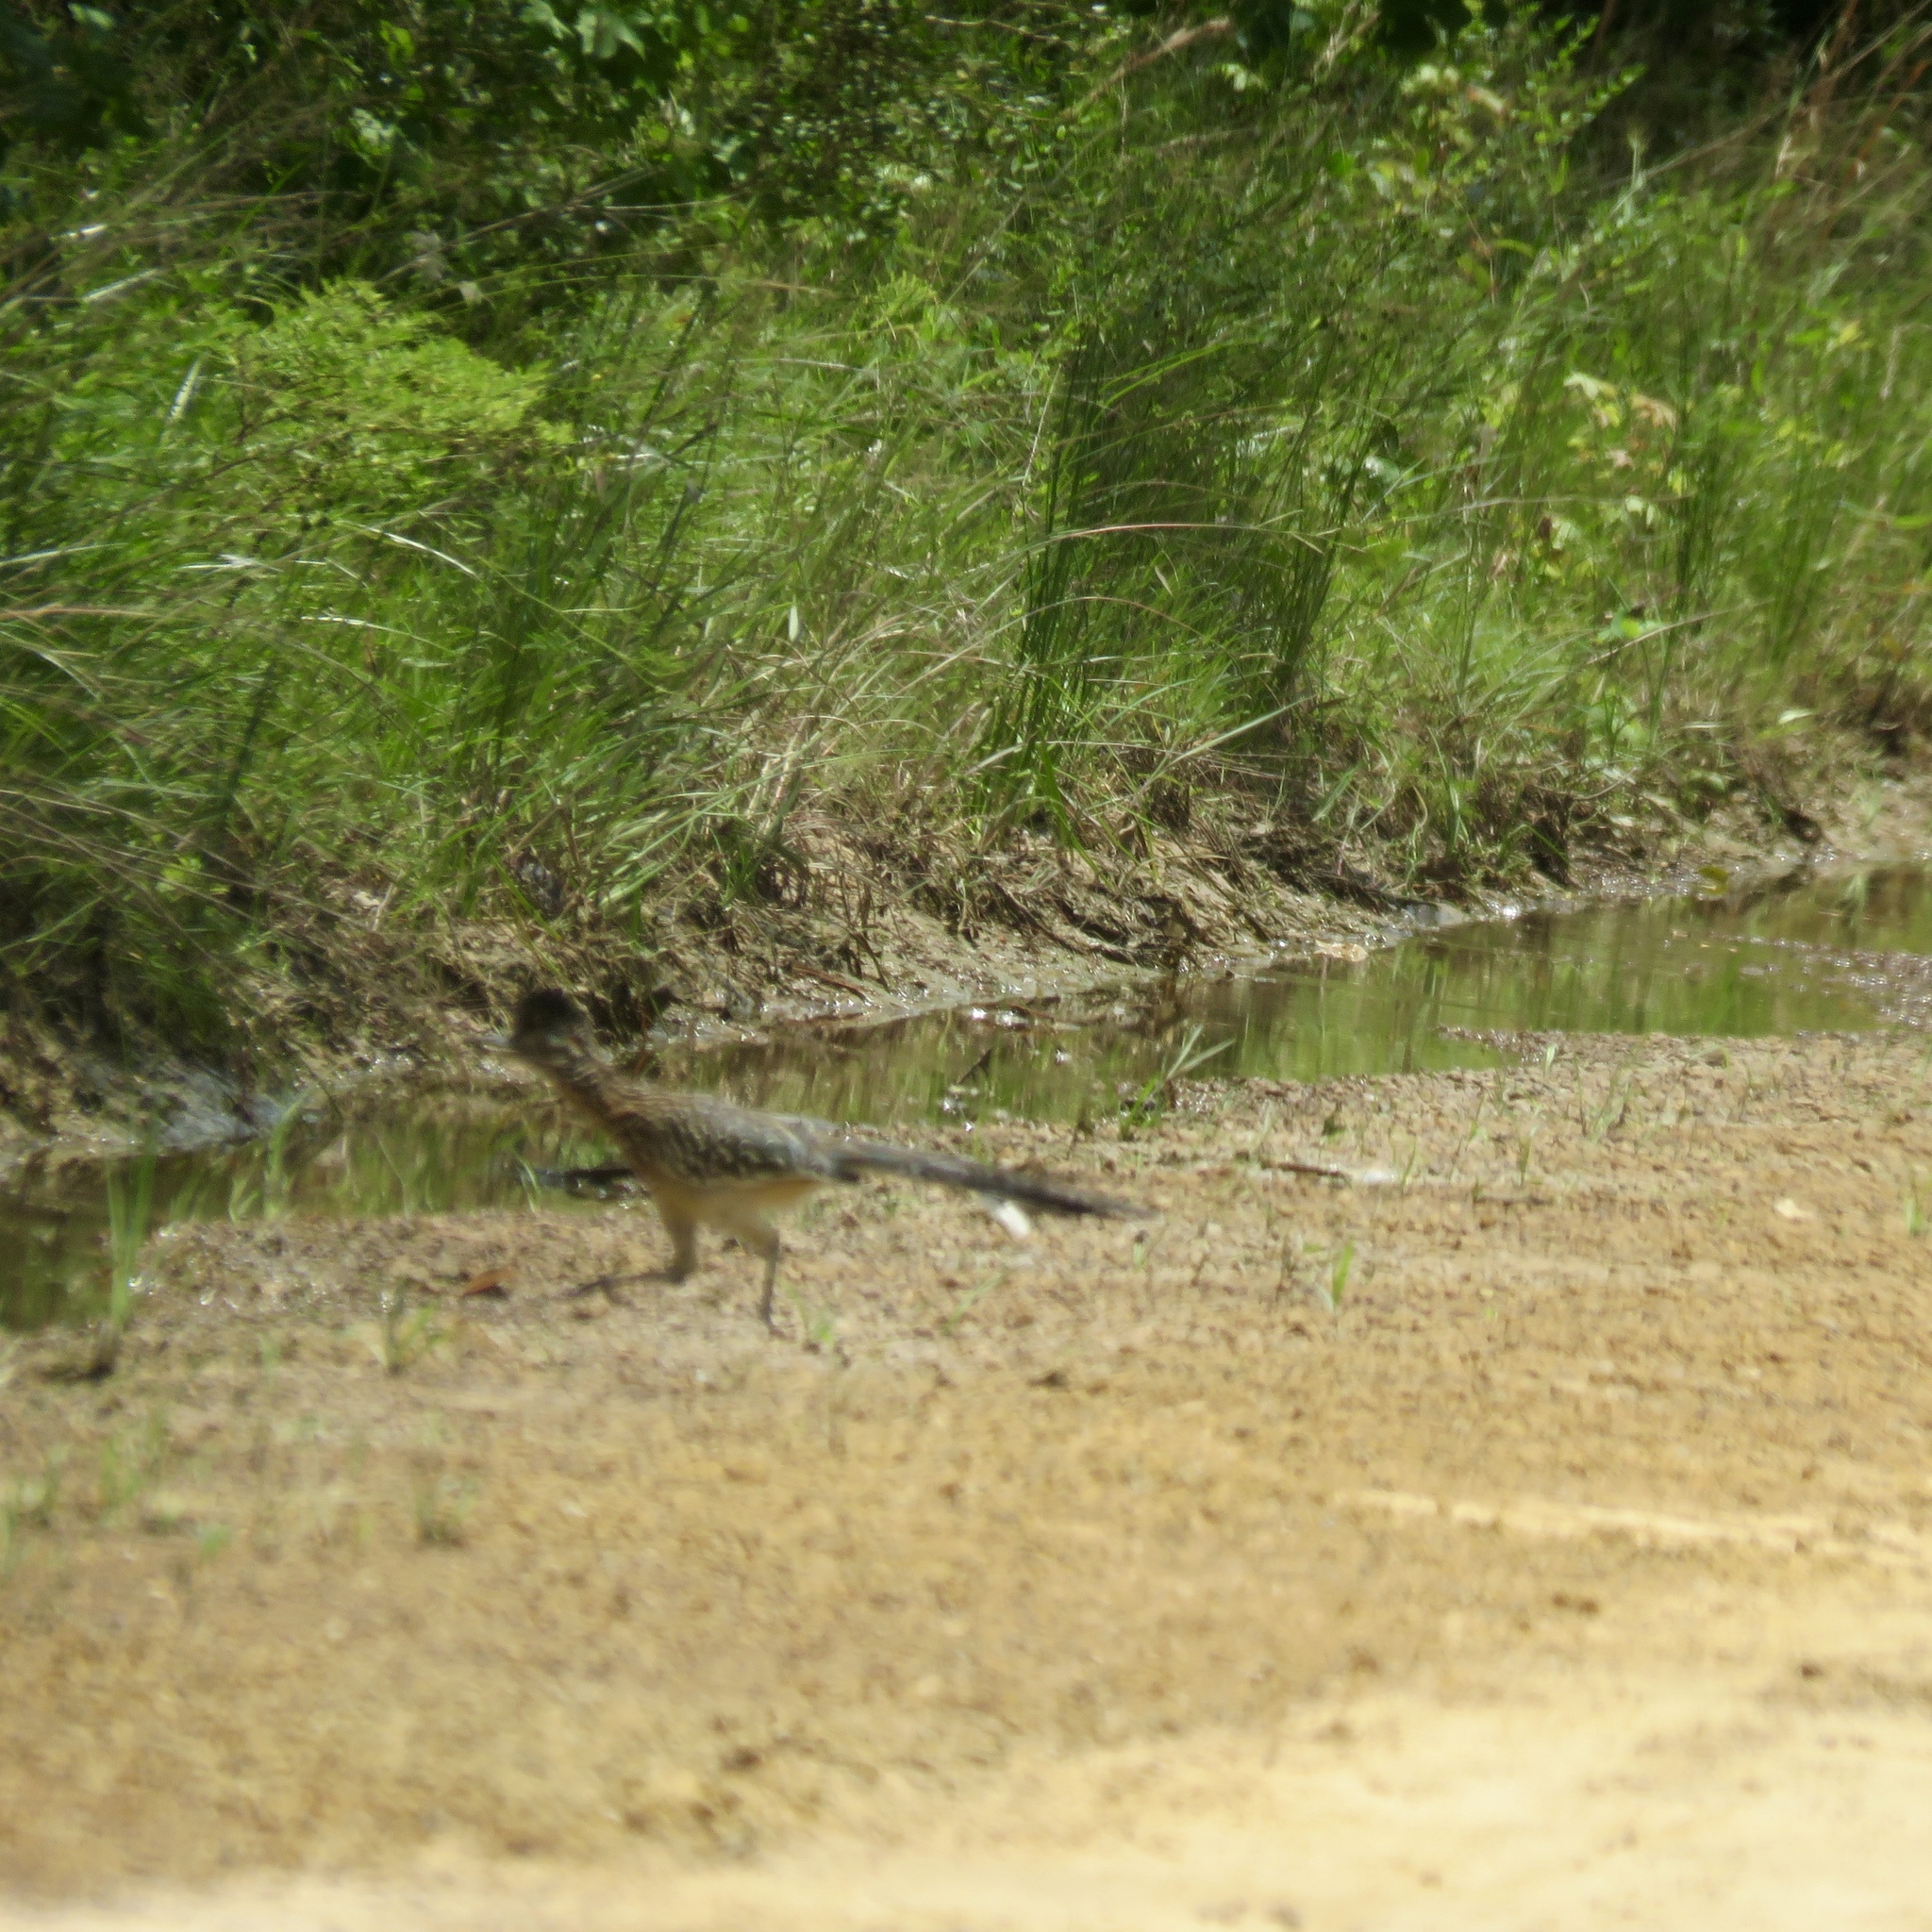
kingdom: Animalia
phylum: Chordata
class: Aves
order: Cuculiformes
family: Cuculidae
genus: Geococcyx
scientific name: Geococcyx californianus
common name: Greater roadrunner
